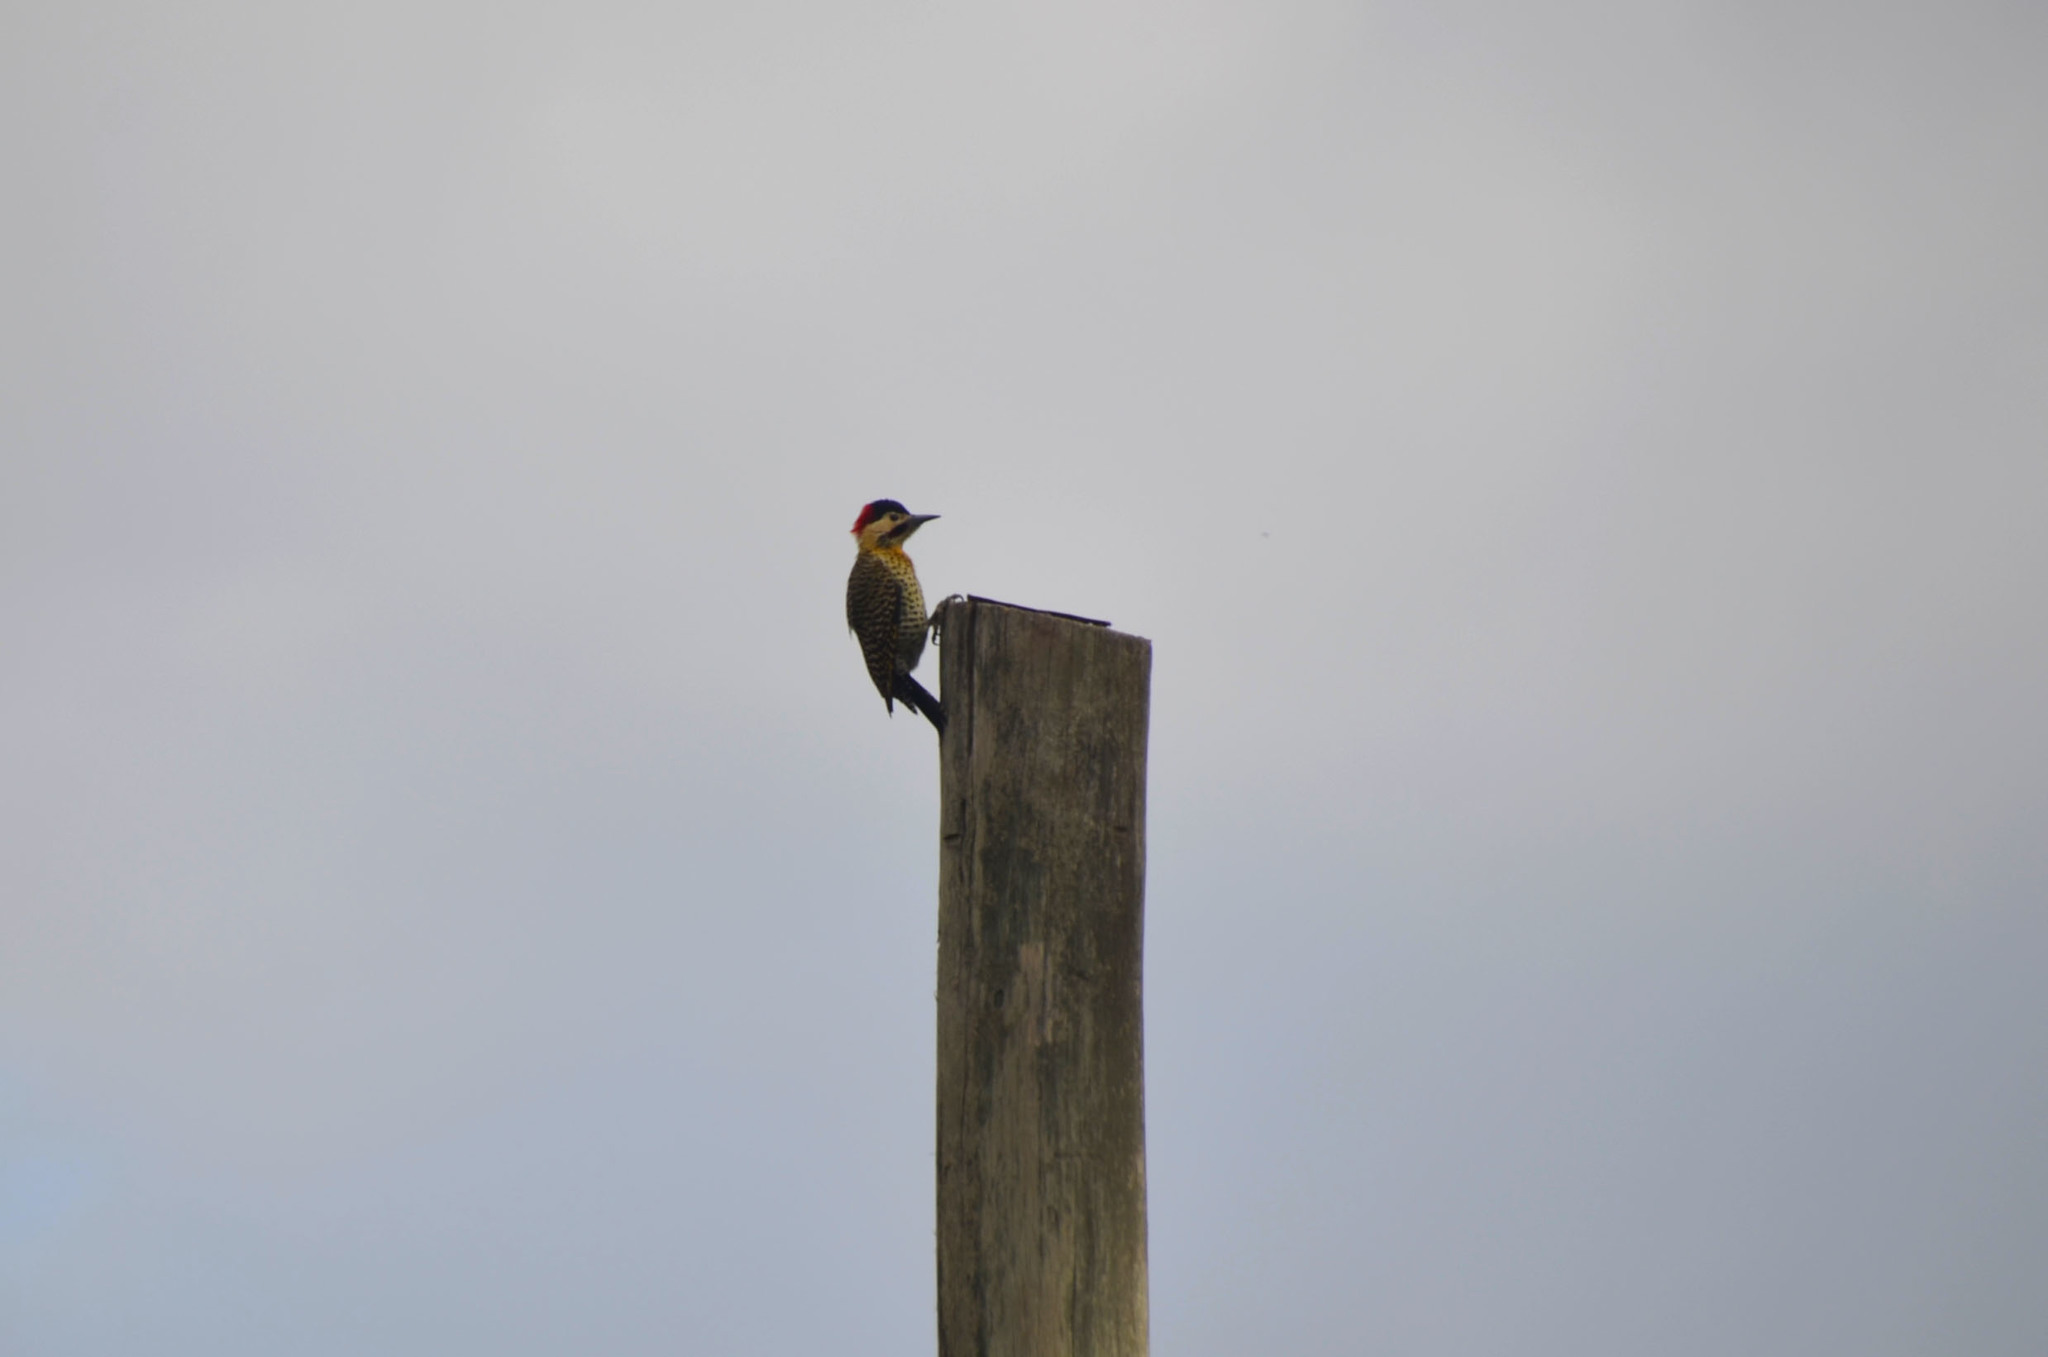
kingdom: Animalia
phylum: Chordata
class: Aves
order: Piciformes
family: Picidae
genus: Colaptes
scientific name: Colaptes melanochloros
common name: Green-barred woodpecker
